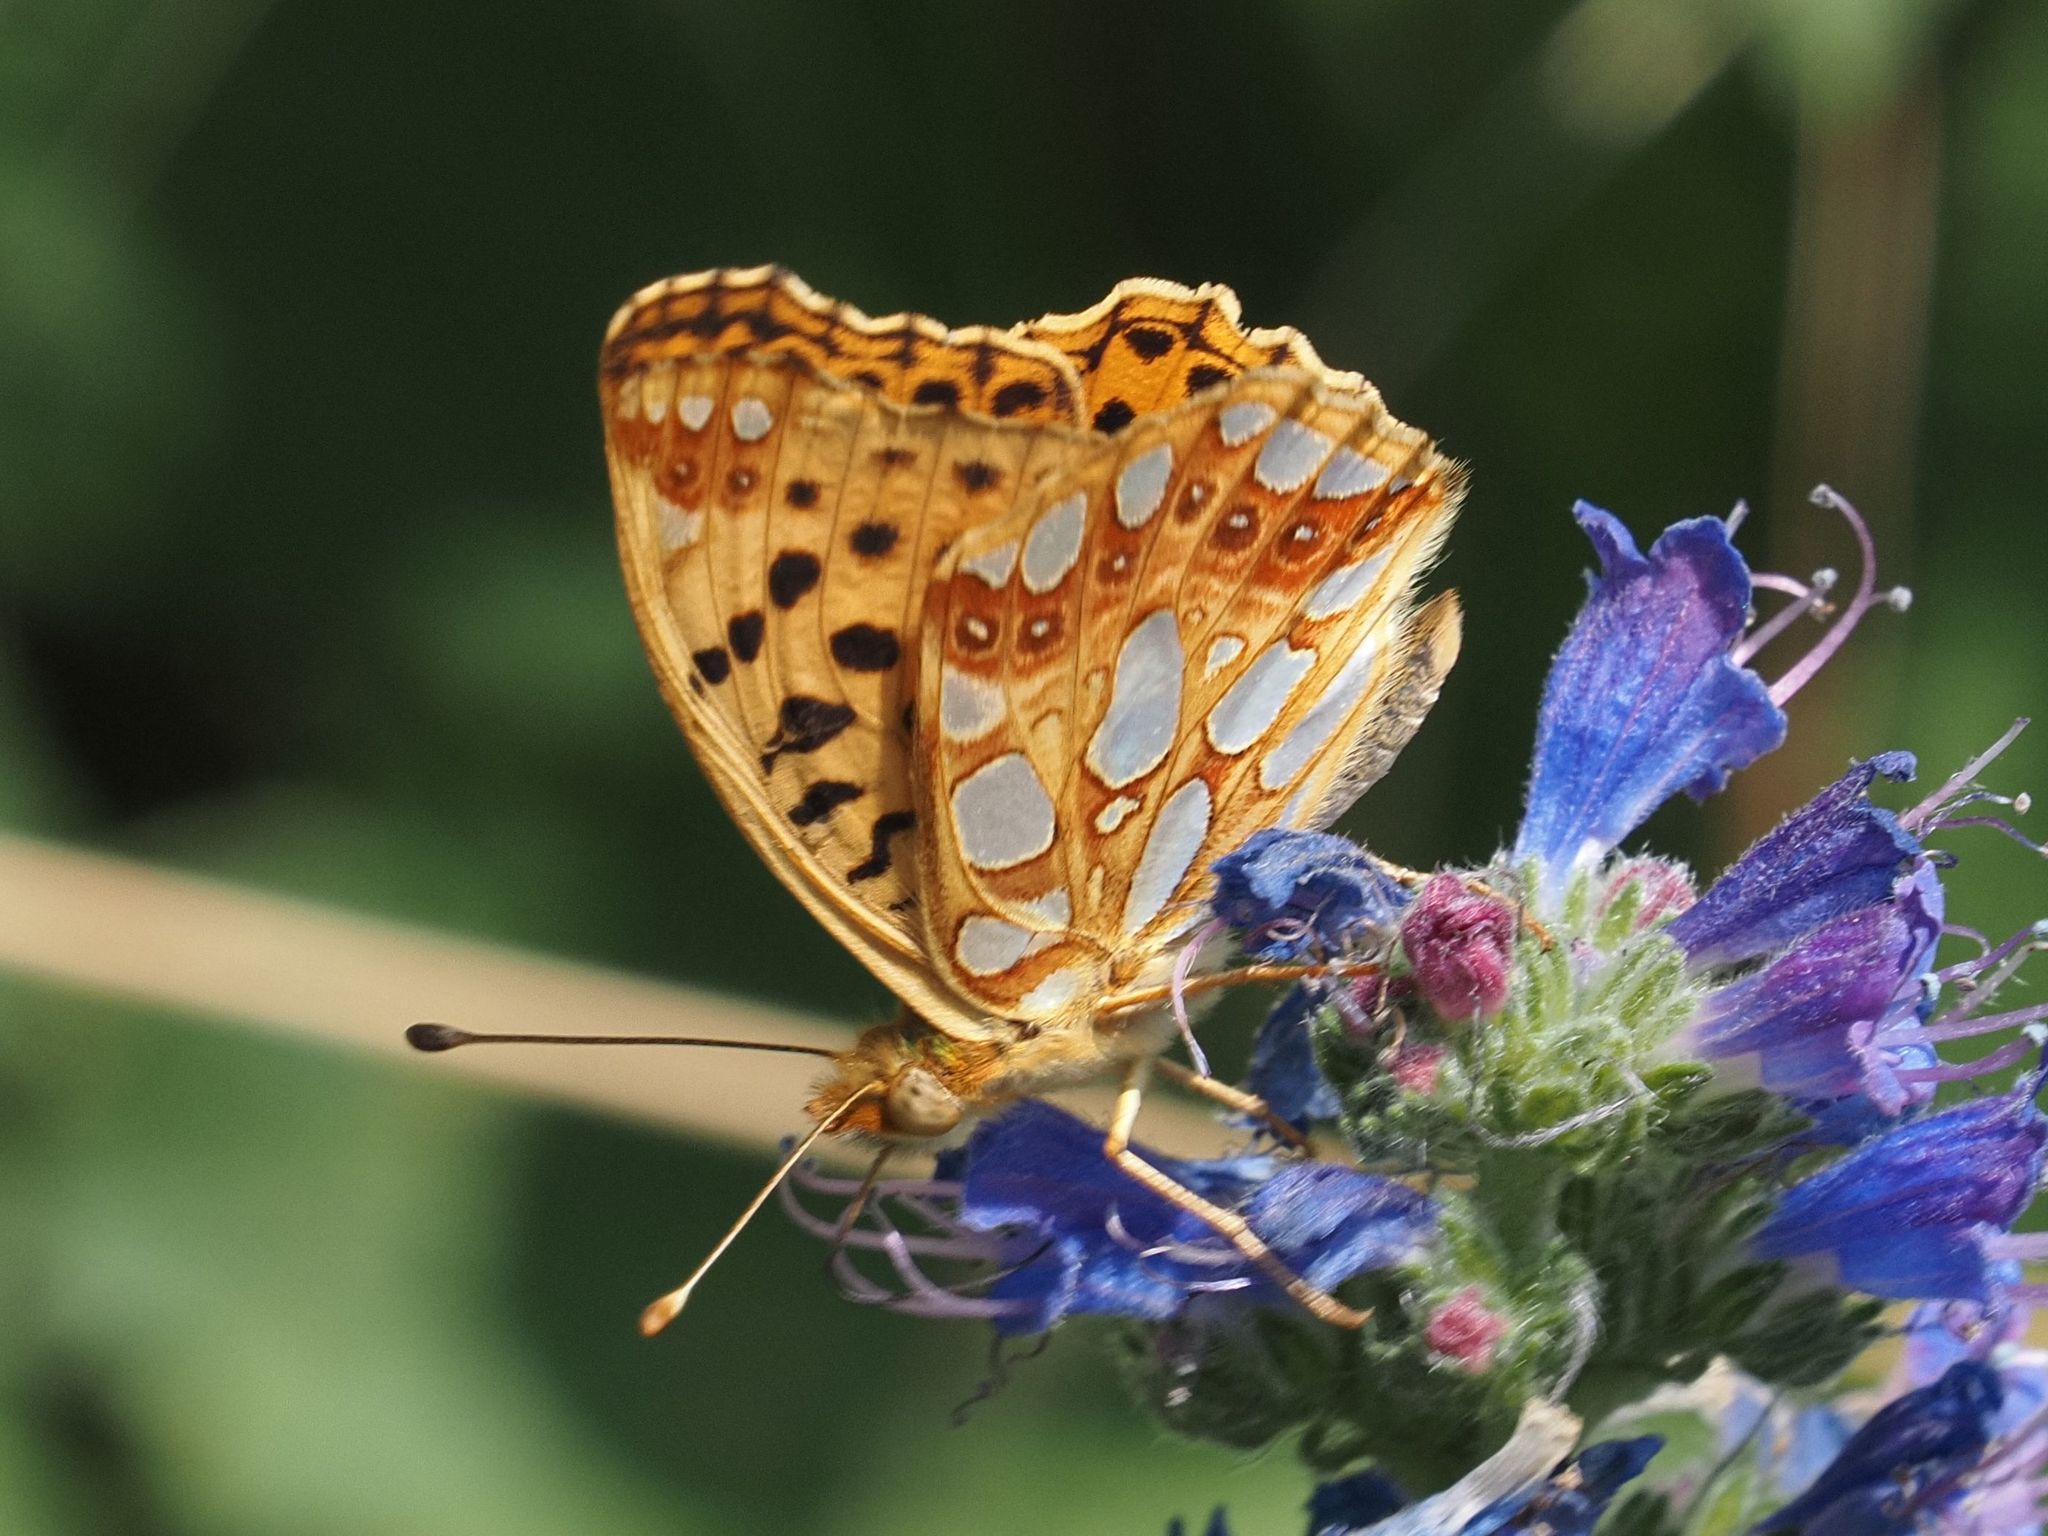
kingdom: Animalia
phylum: Arthropoda
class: Insecta
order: Lepidoptera
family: Nymphalidae
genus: Issoria
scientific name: Issoria lathonia
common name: Queen of spain fritillary
